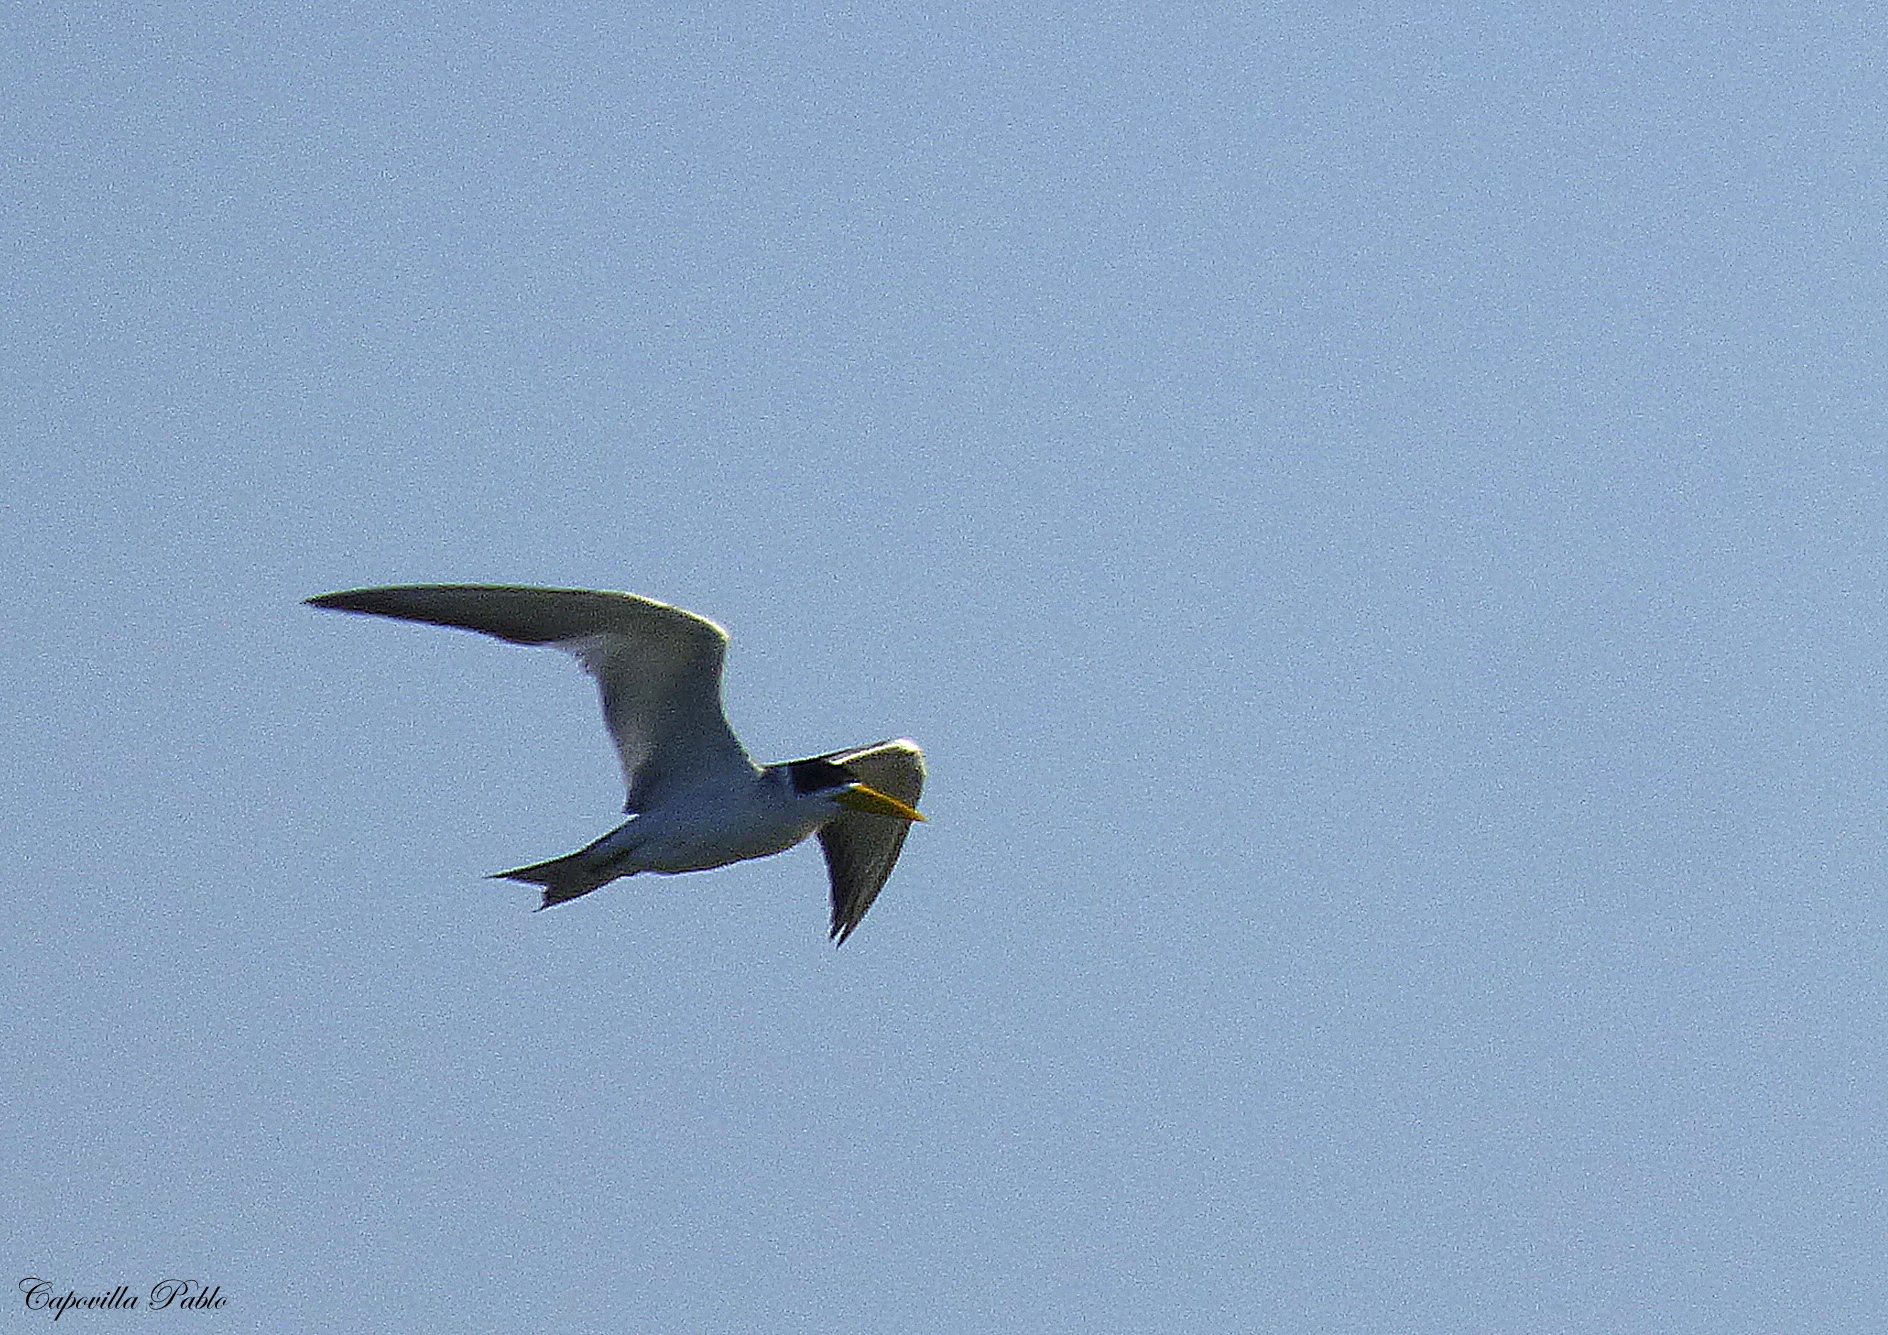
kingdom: Animalia
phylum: Chordata
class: Aves
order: Charadriiformes
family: Laridae
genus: Phaetusa
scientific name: Phaetusa simplex
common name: Large-billed tern
